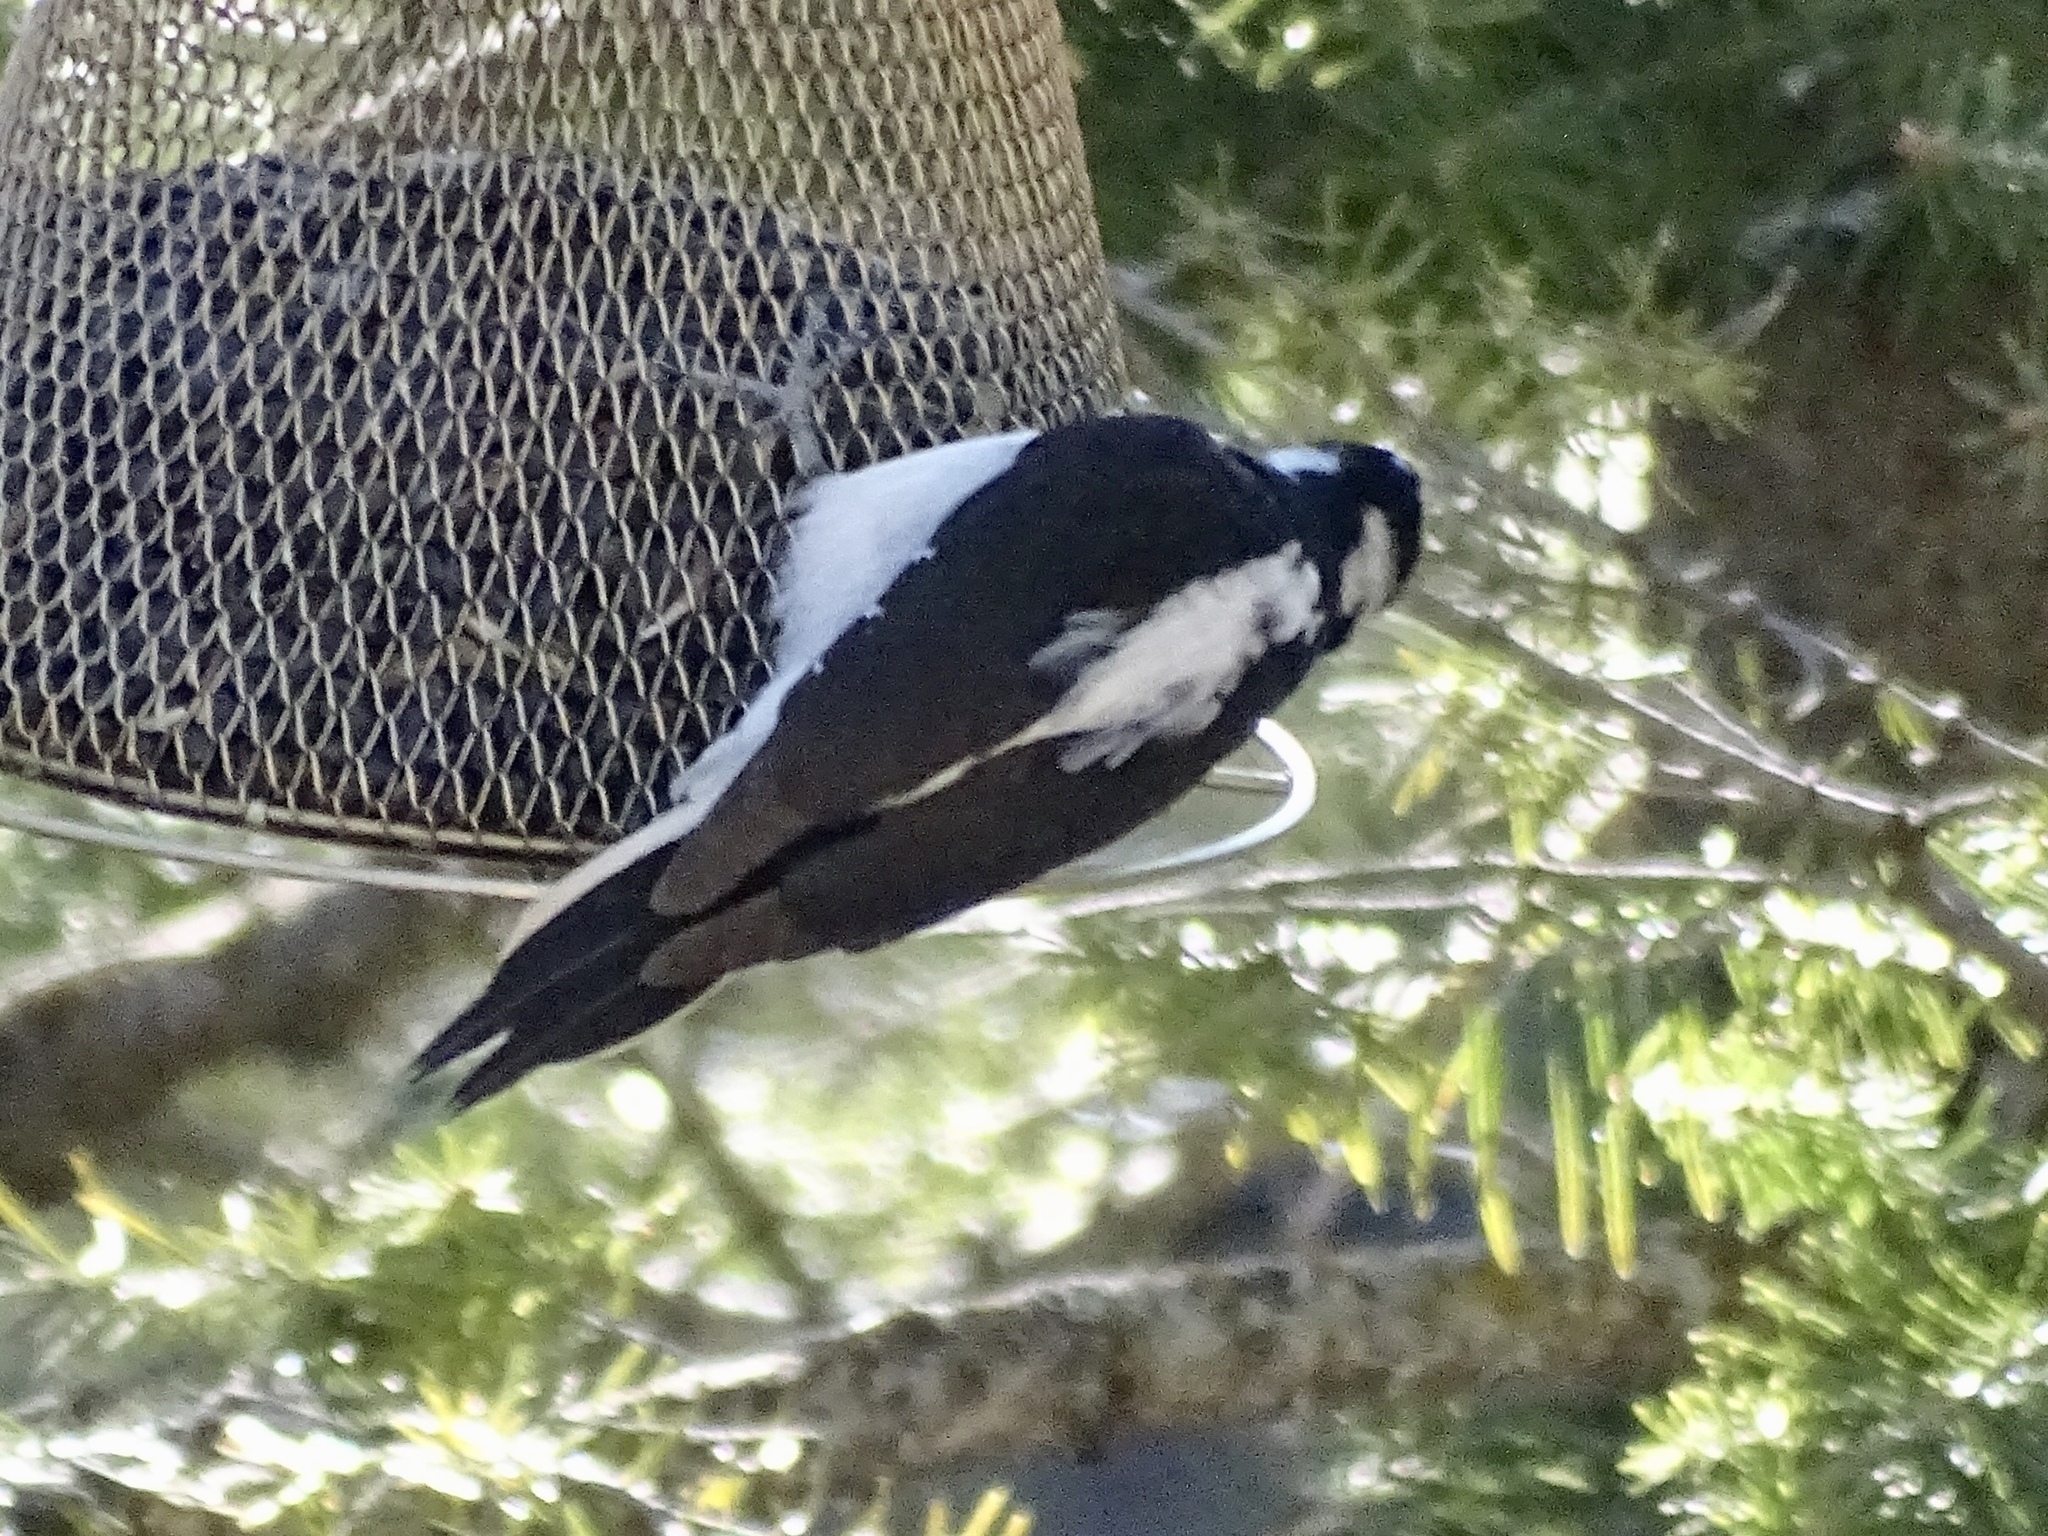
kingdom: Animalia
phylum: Chordata
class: Aves
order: Piciformes
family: Picidae
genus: Leuconotopicus
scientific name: Leuconotopicus villosus
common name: Hairy woodpecker
